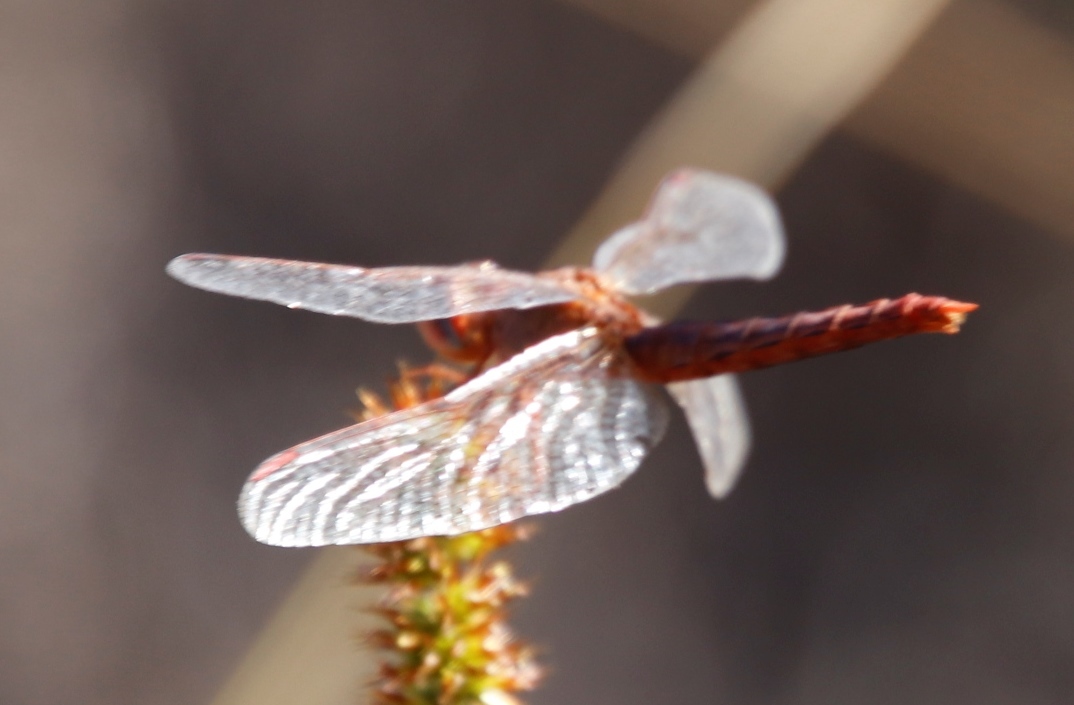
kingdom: Animalia
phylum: Arthropoda
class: Insecta
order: Odonata
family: Libellulidae
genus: Crocothemis
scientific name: Crocothemis sanguinolenta
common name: Little scarlet
